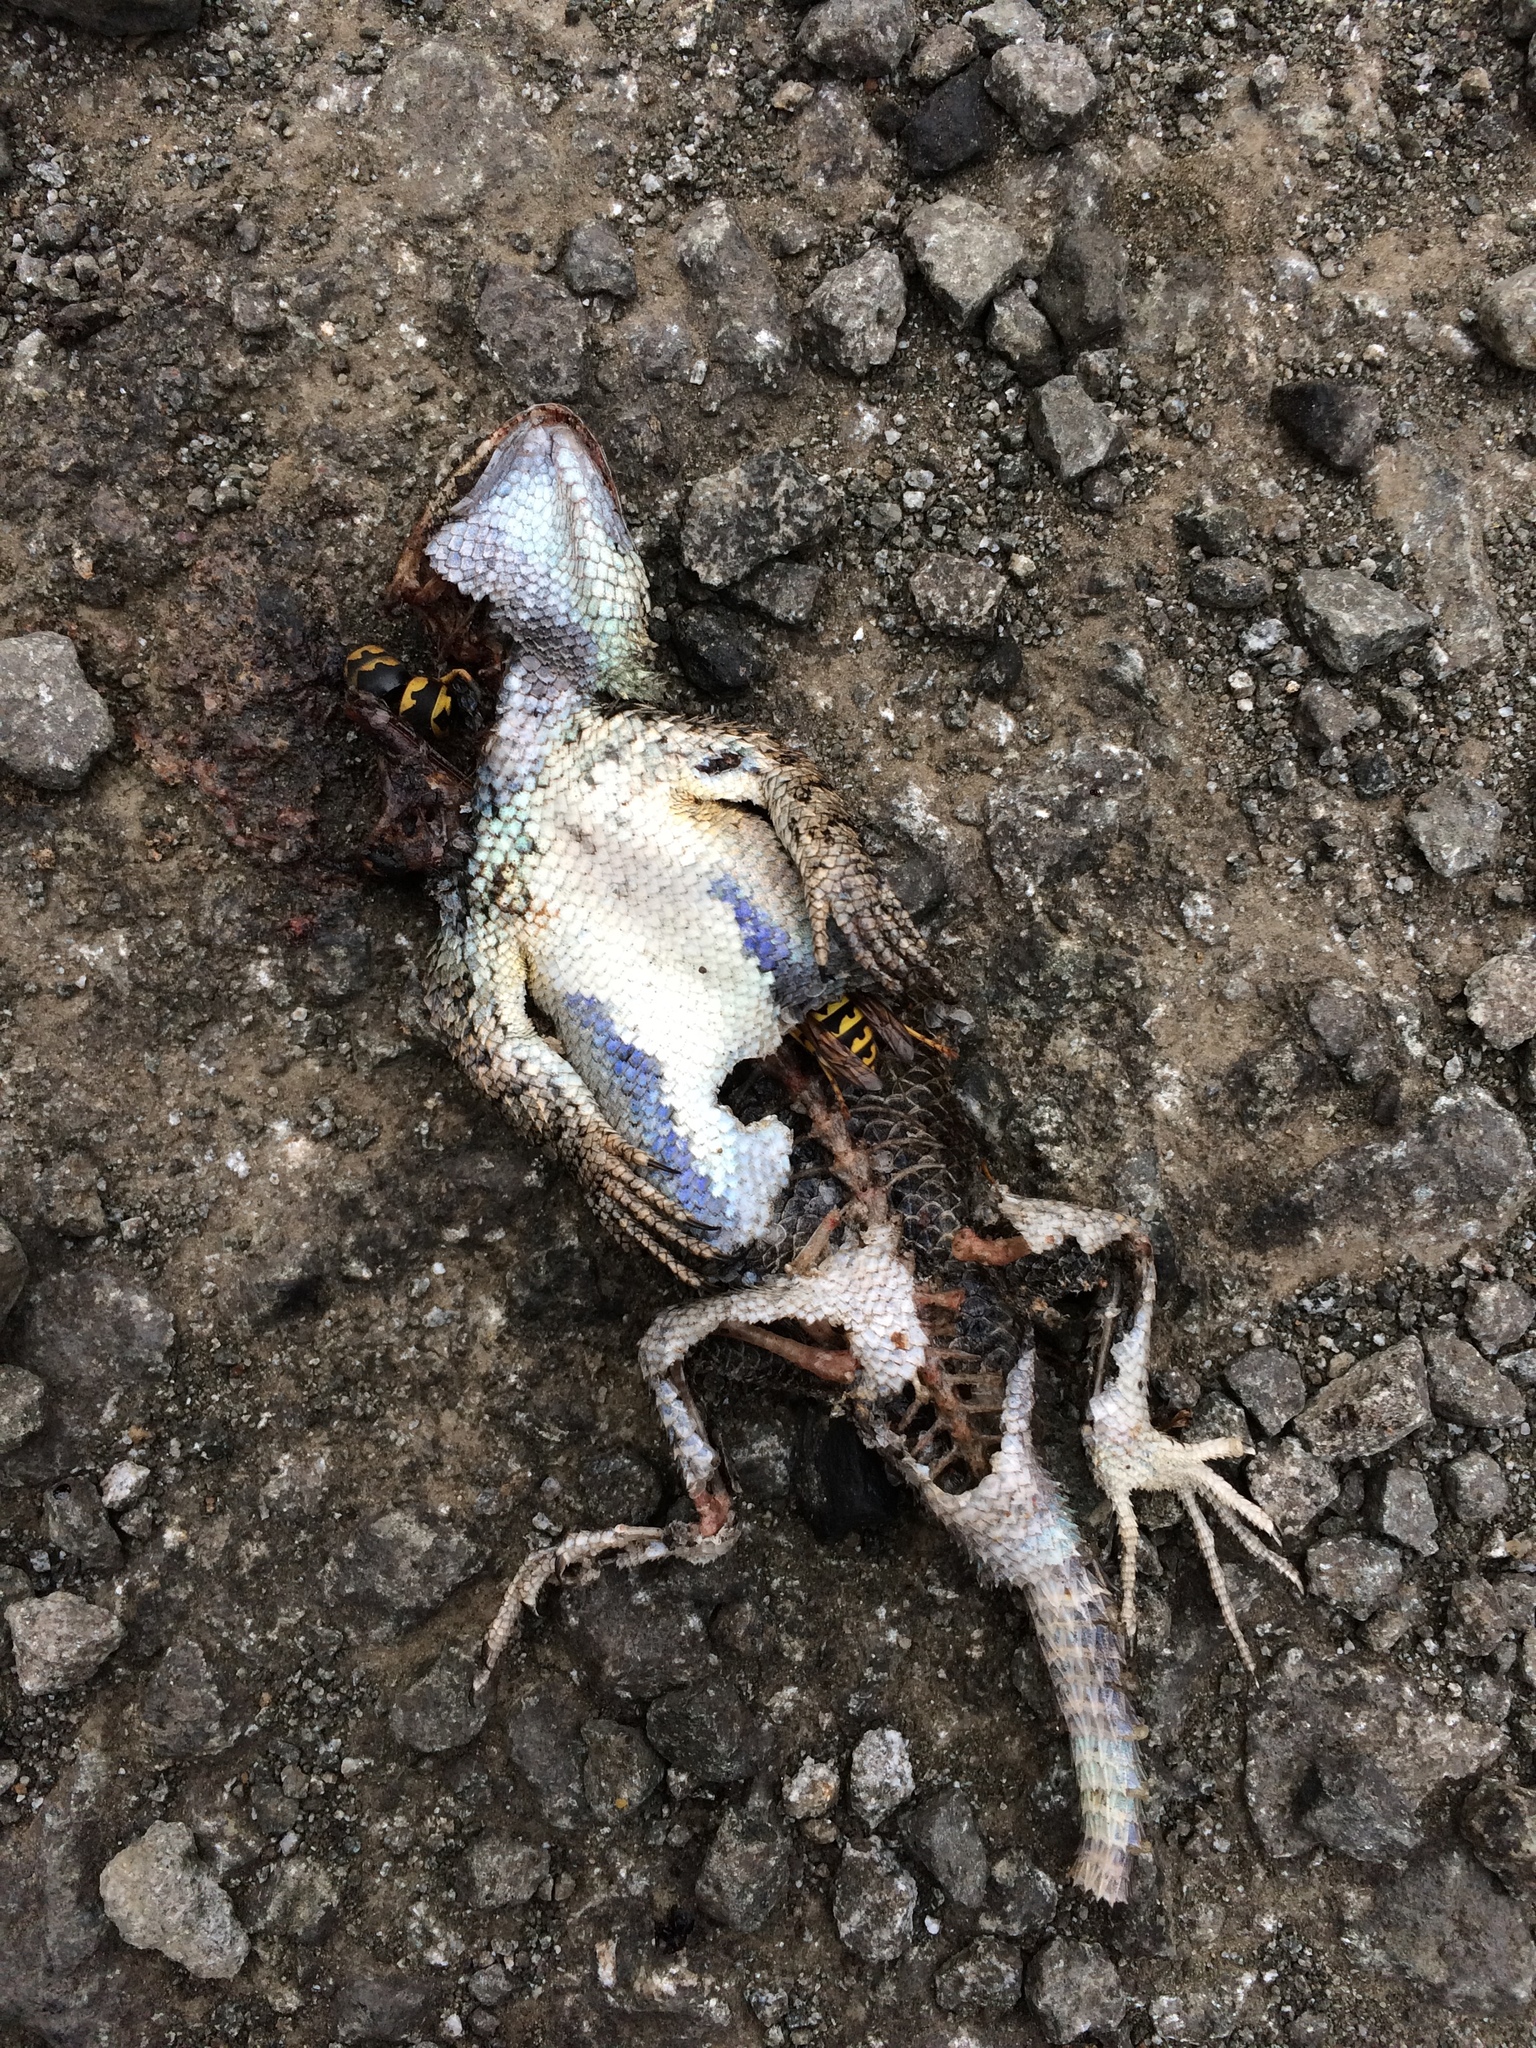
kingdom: Animalia
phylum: Chordata
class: Squamata
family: Phrynosomatidae
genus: Sceloporus
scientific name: Sceloporus occidentalis
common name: Western fence lizard
